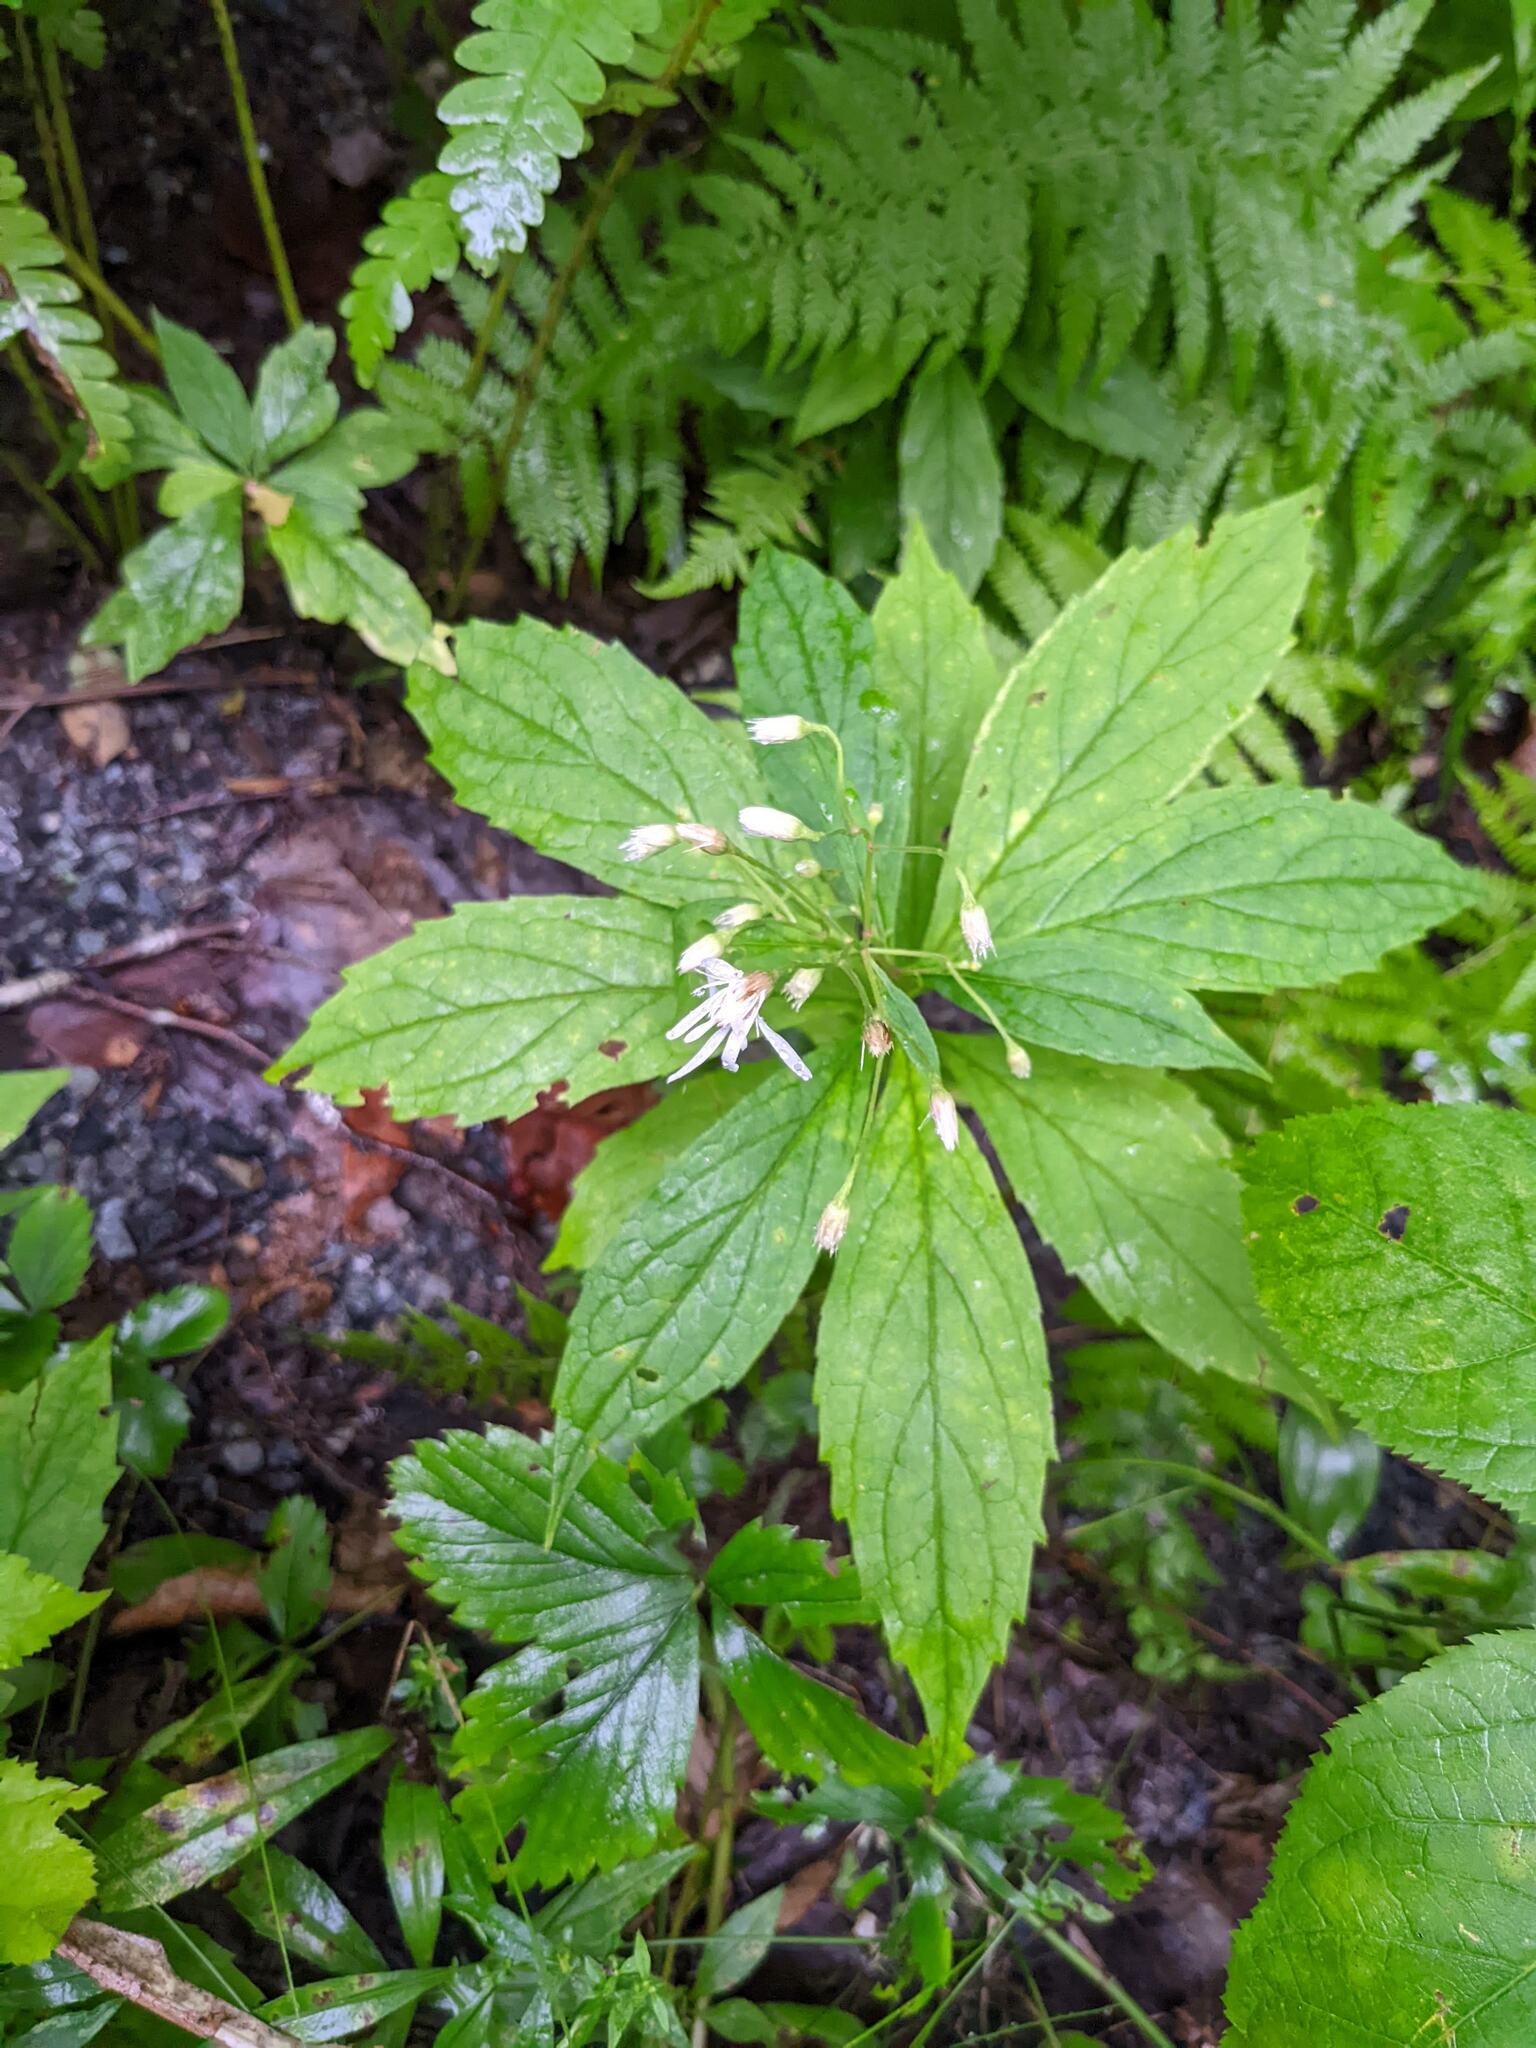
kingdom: Plantae
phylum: Tracheophyta
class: Magnoliopsida
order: Asterales
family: Asteraceae
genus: Oclemena
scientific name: Oclemena acuminata
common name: Mountain aster
